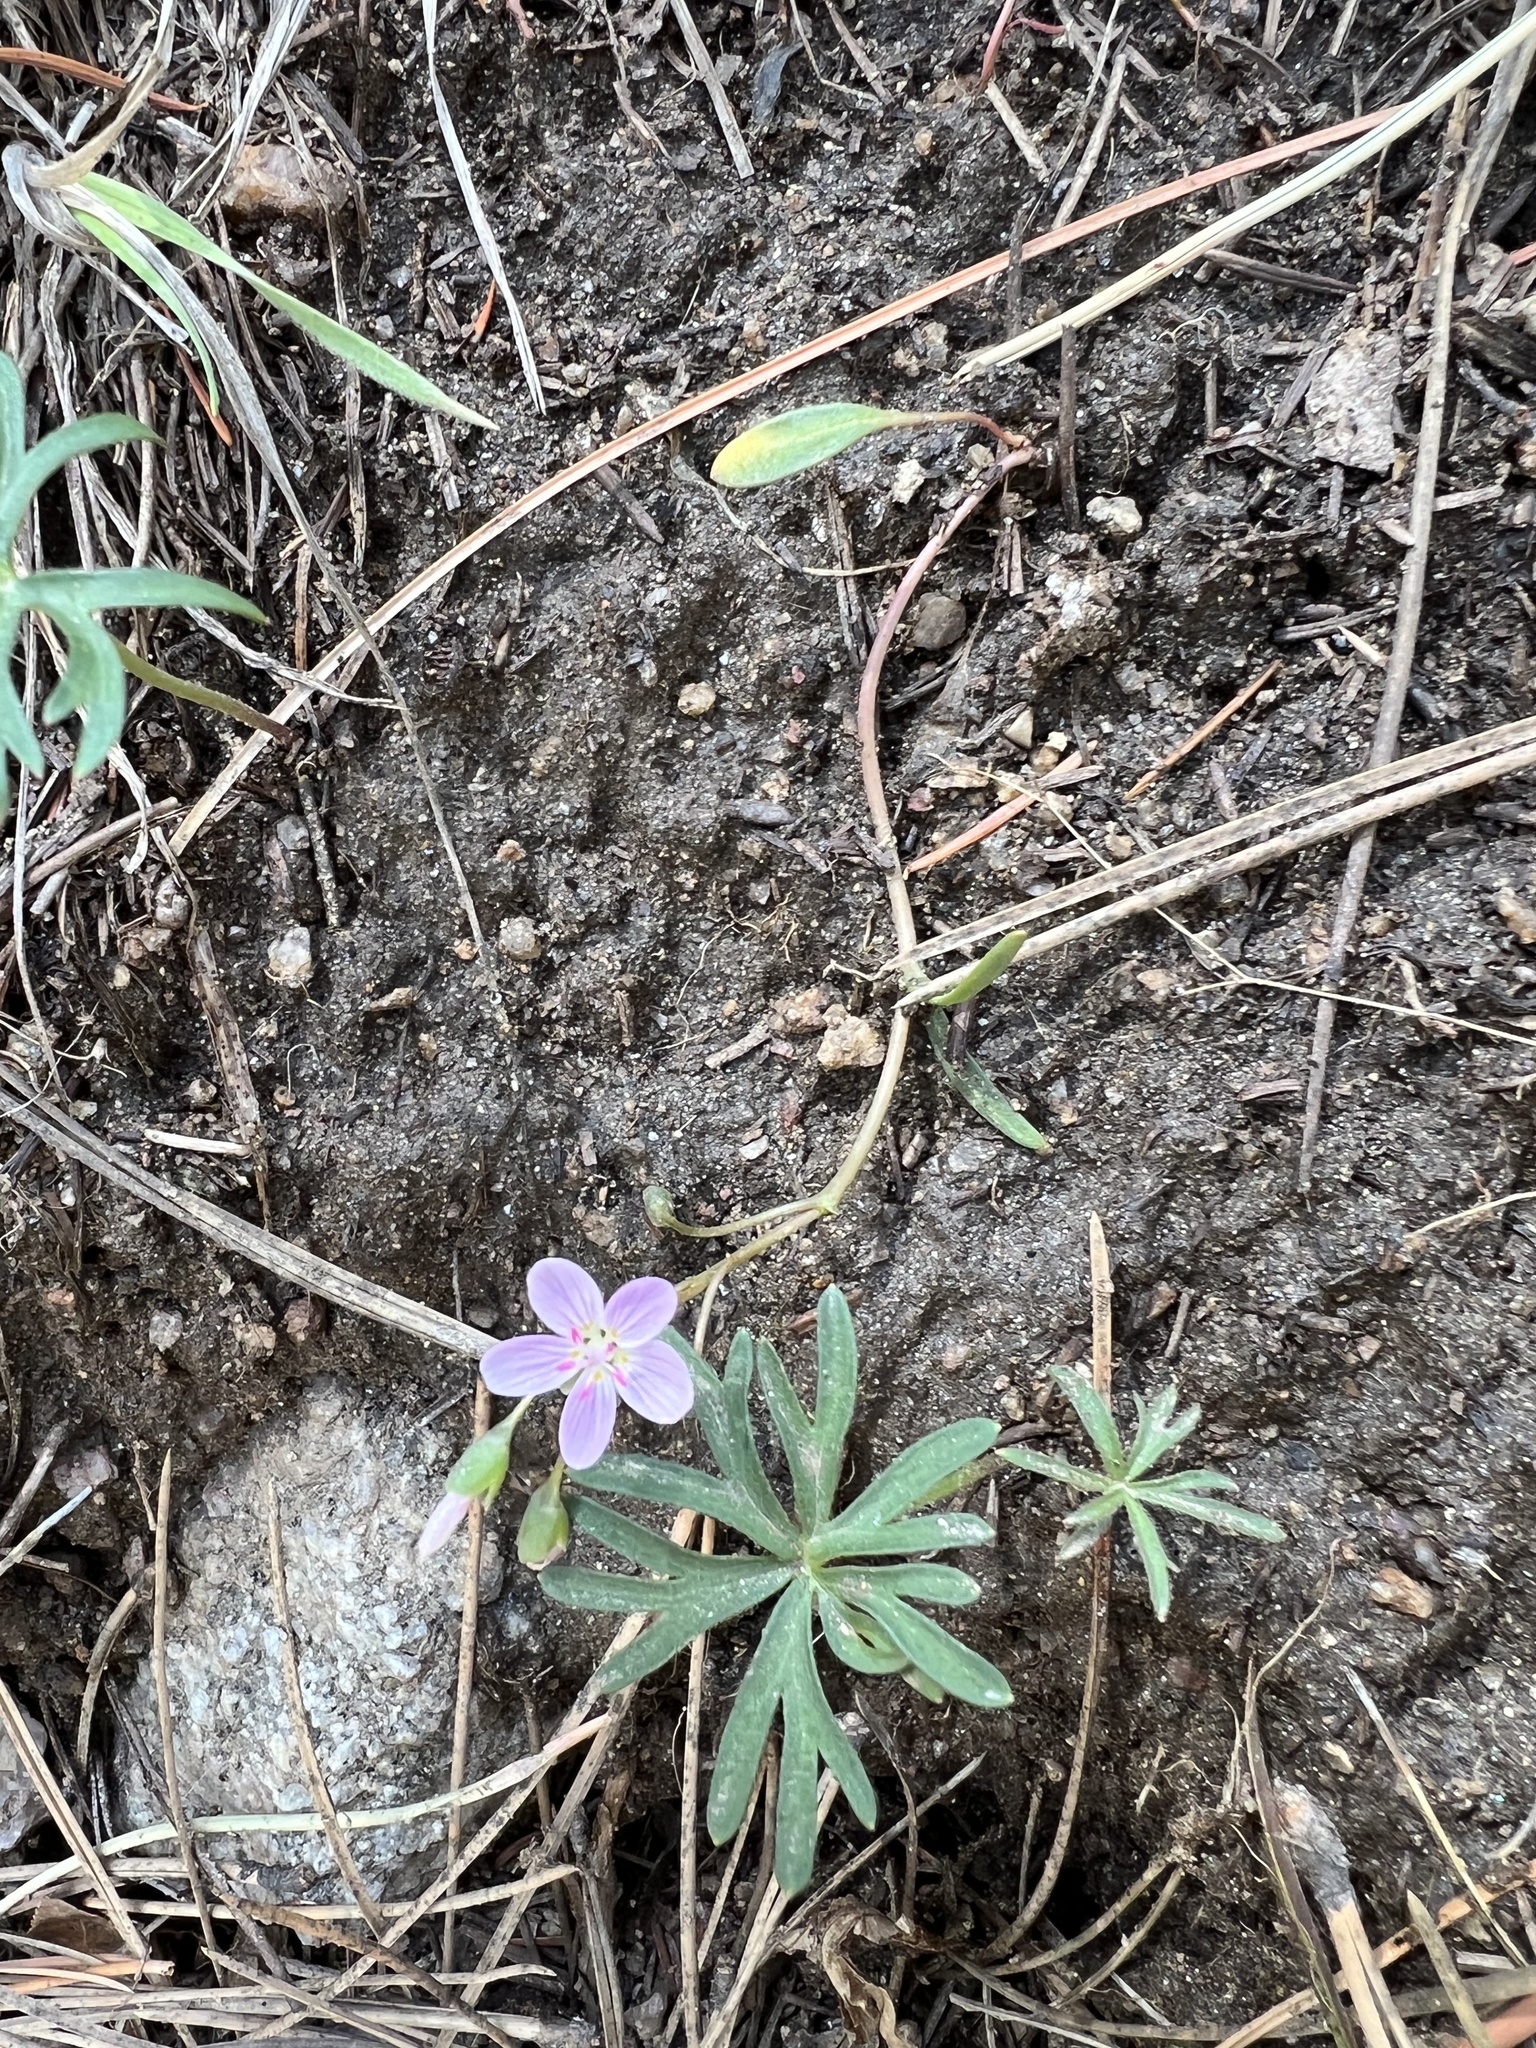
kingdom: Plantae
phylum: Tracheophyta
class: Magnoliopsida
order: Caryophyllales
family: Montiaceae
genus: Claytonia
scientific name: Claytonia rosea
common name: Rocky mountain spring-beauty
